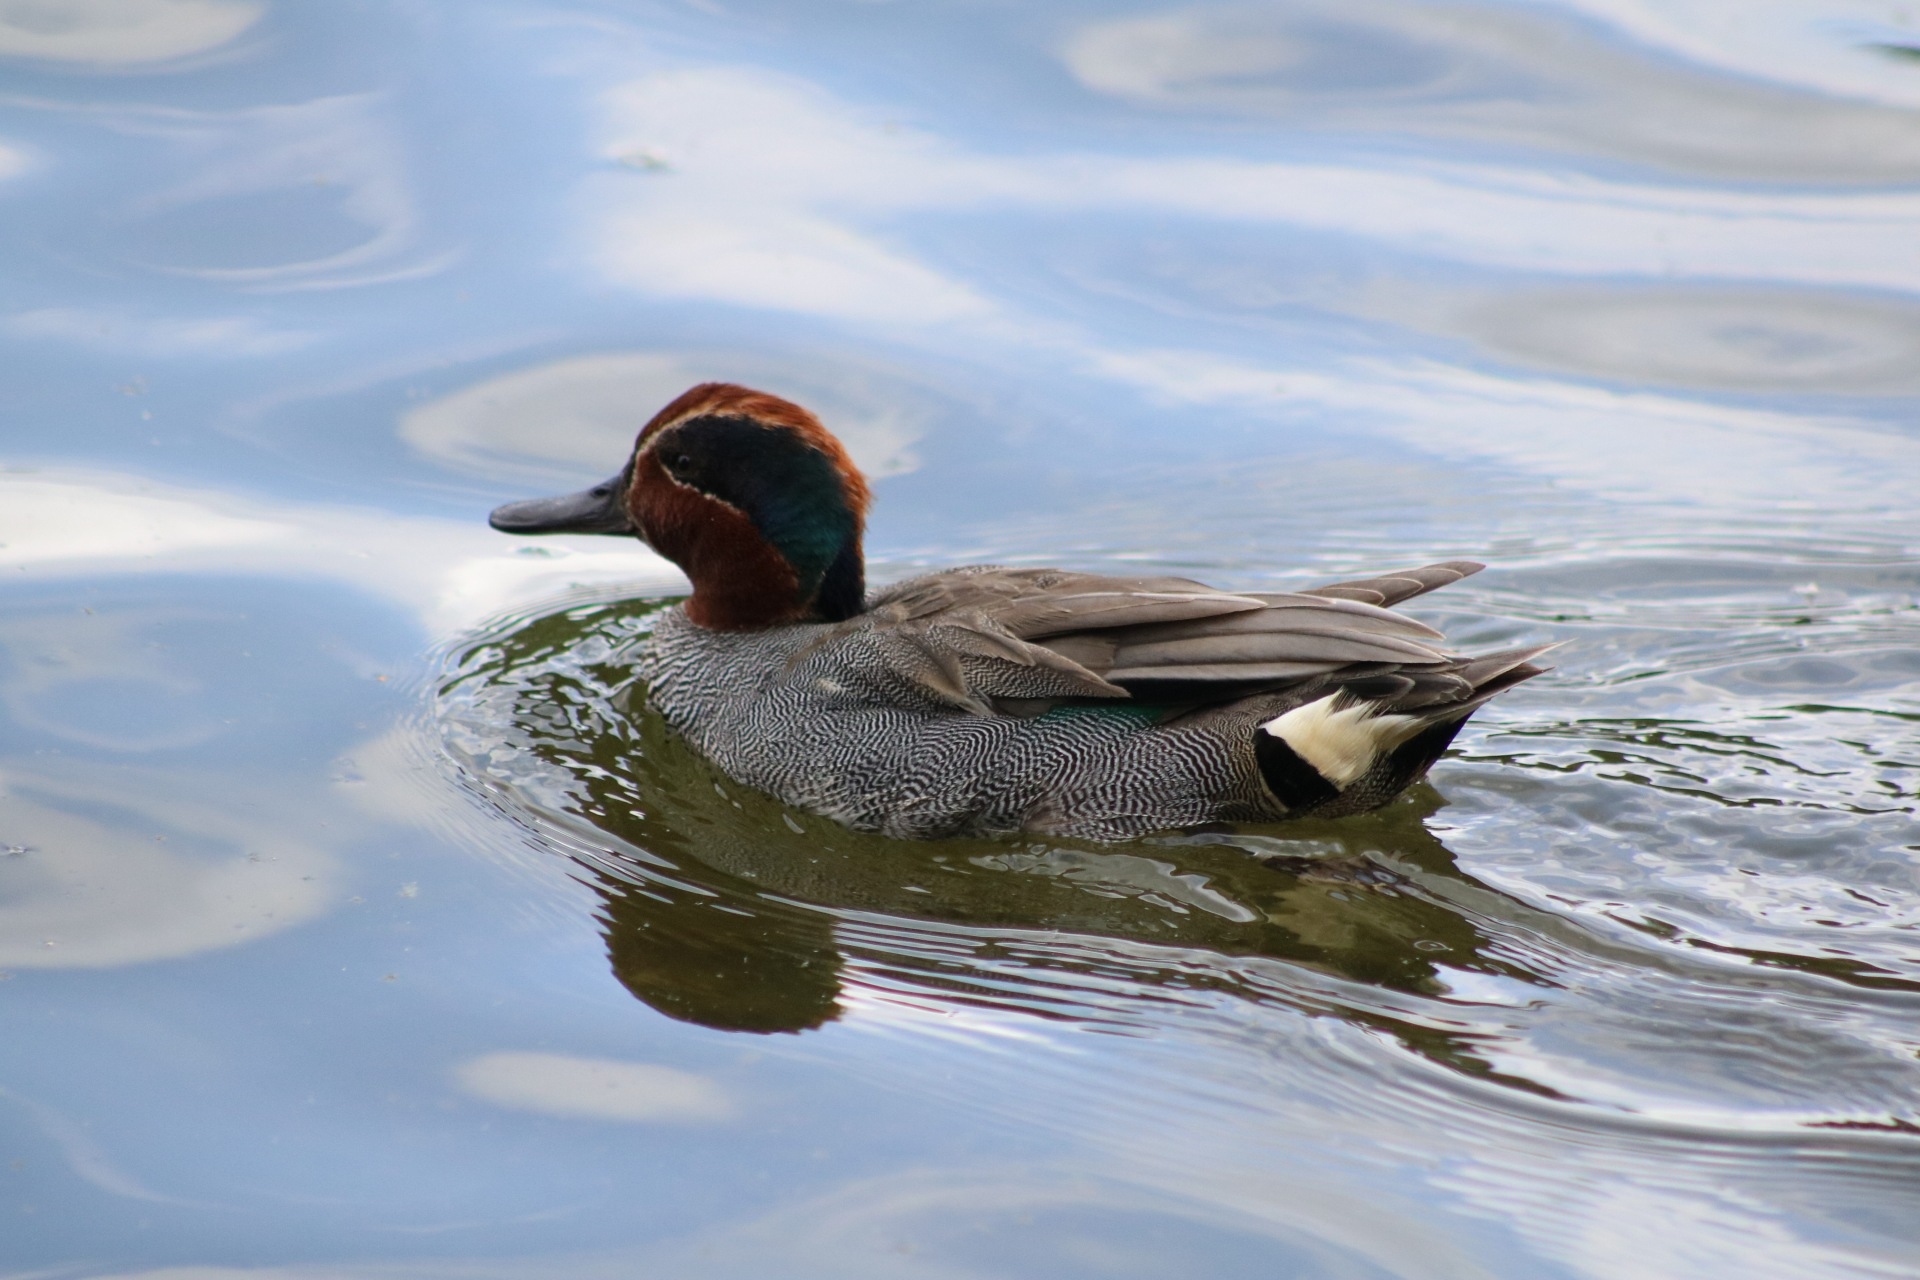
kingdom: Animalia
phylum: Chordata
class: Aves
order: Anseriformes
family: Anatidae
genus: Anas
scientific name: Anas crecca
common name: Eurasian teal
